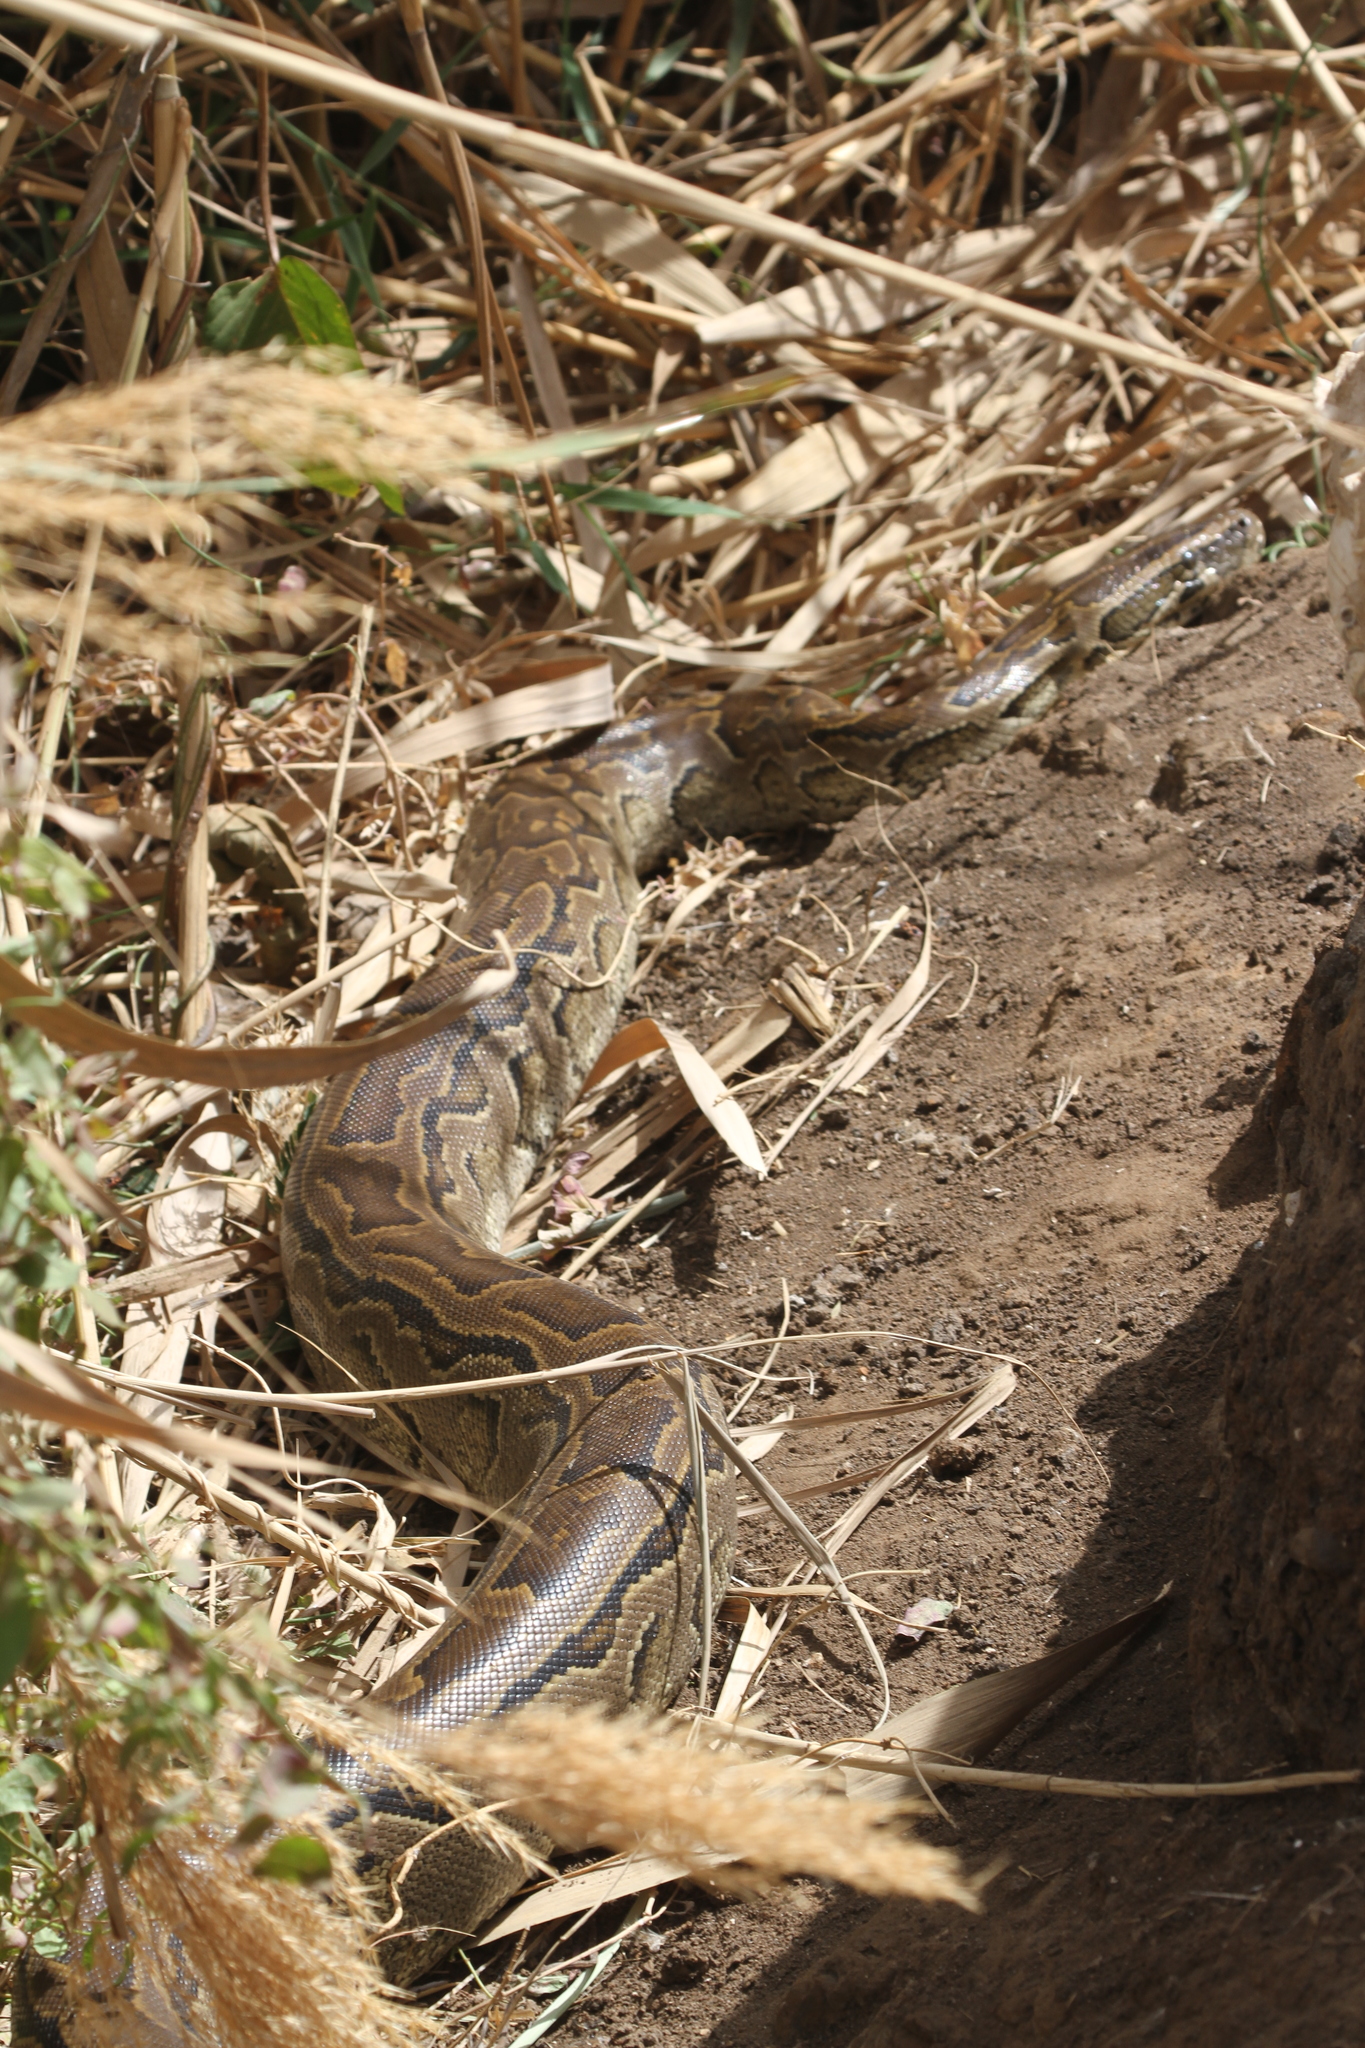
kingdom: Animalia
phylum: Chordata
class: Squamata
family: Pythonidae
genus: Python
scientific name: Python sebae
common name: African rock python
